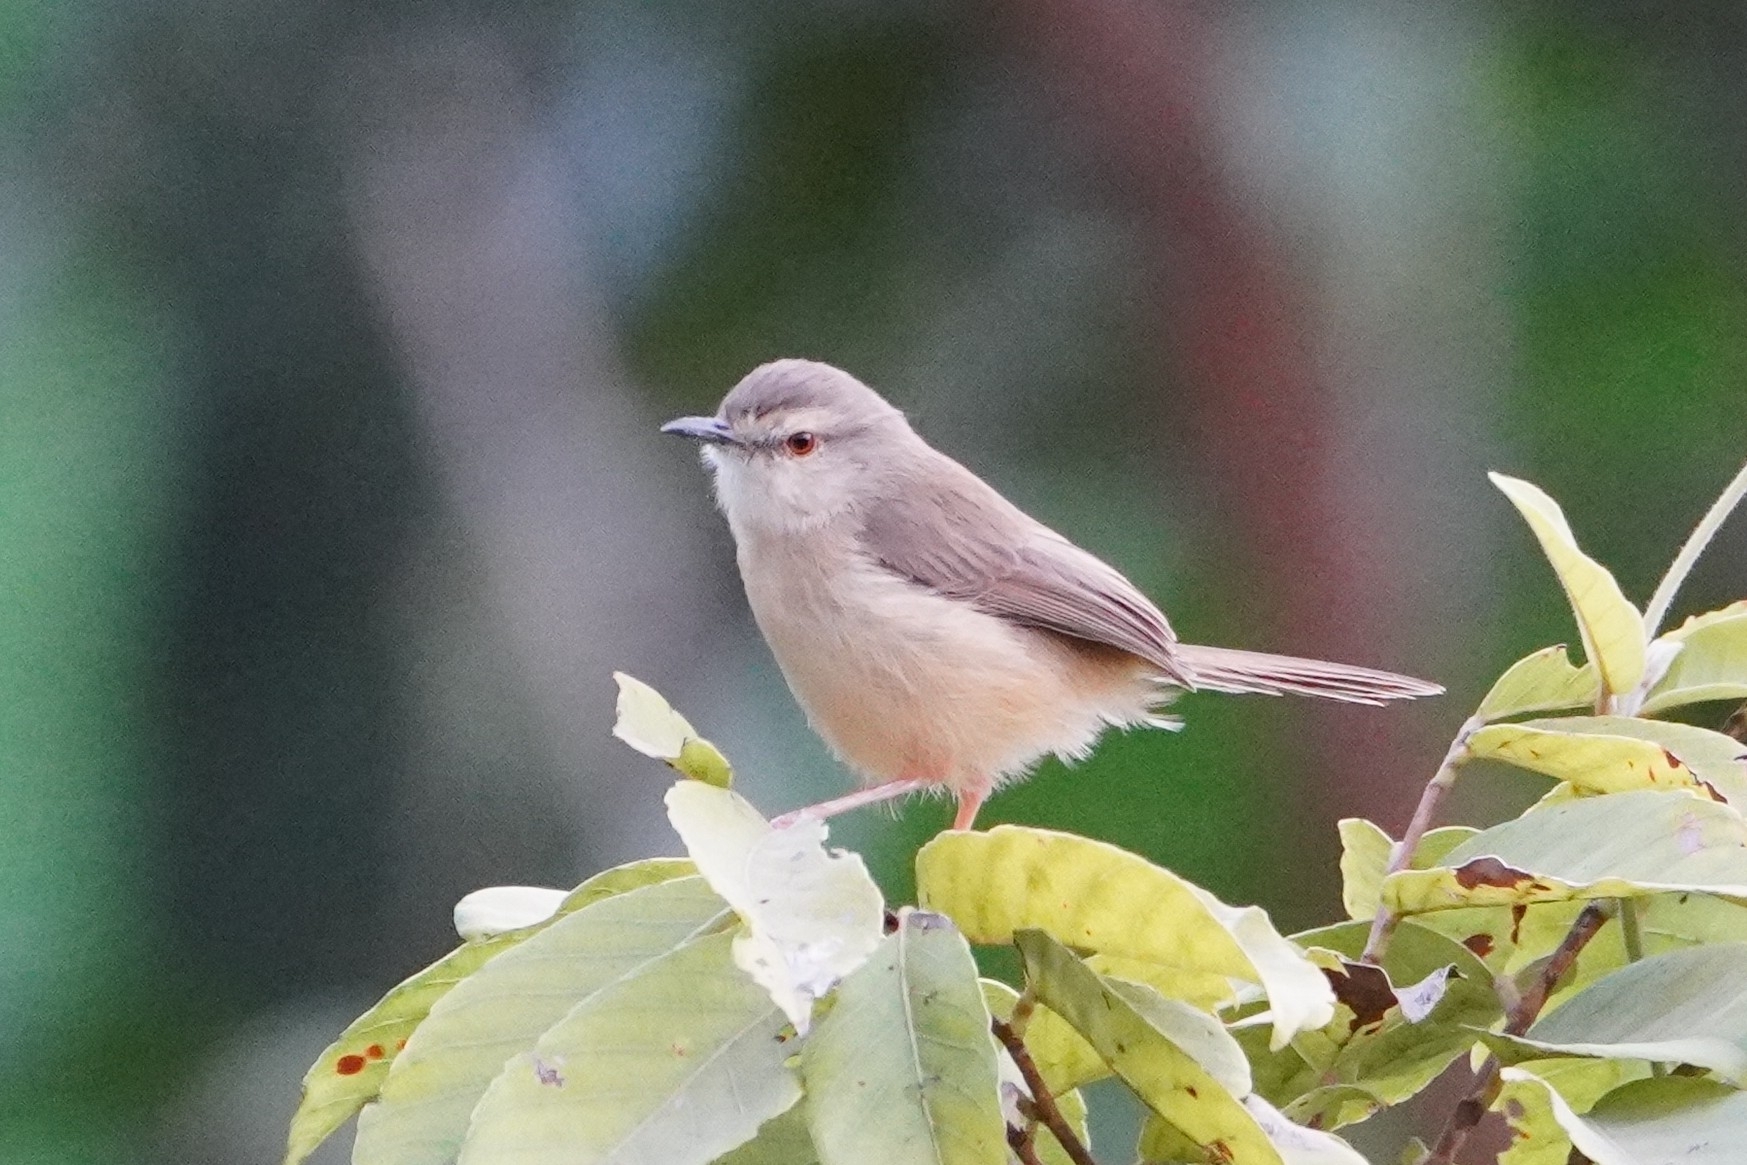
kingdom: Animalia
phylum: Chordata
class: Aves
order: Passeriformes
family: Cisticolidae
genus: Prinia
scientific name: Prinia subflava
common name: Tawny-flanked prinia
